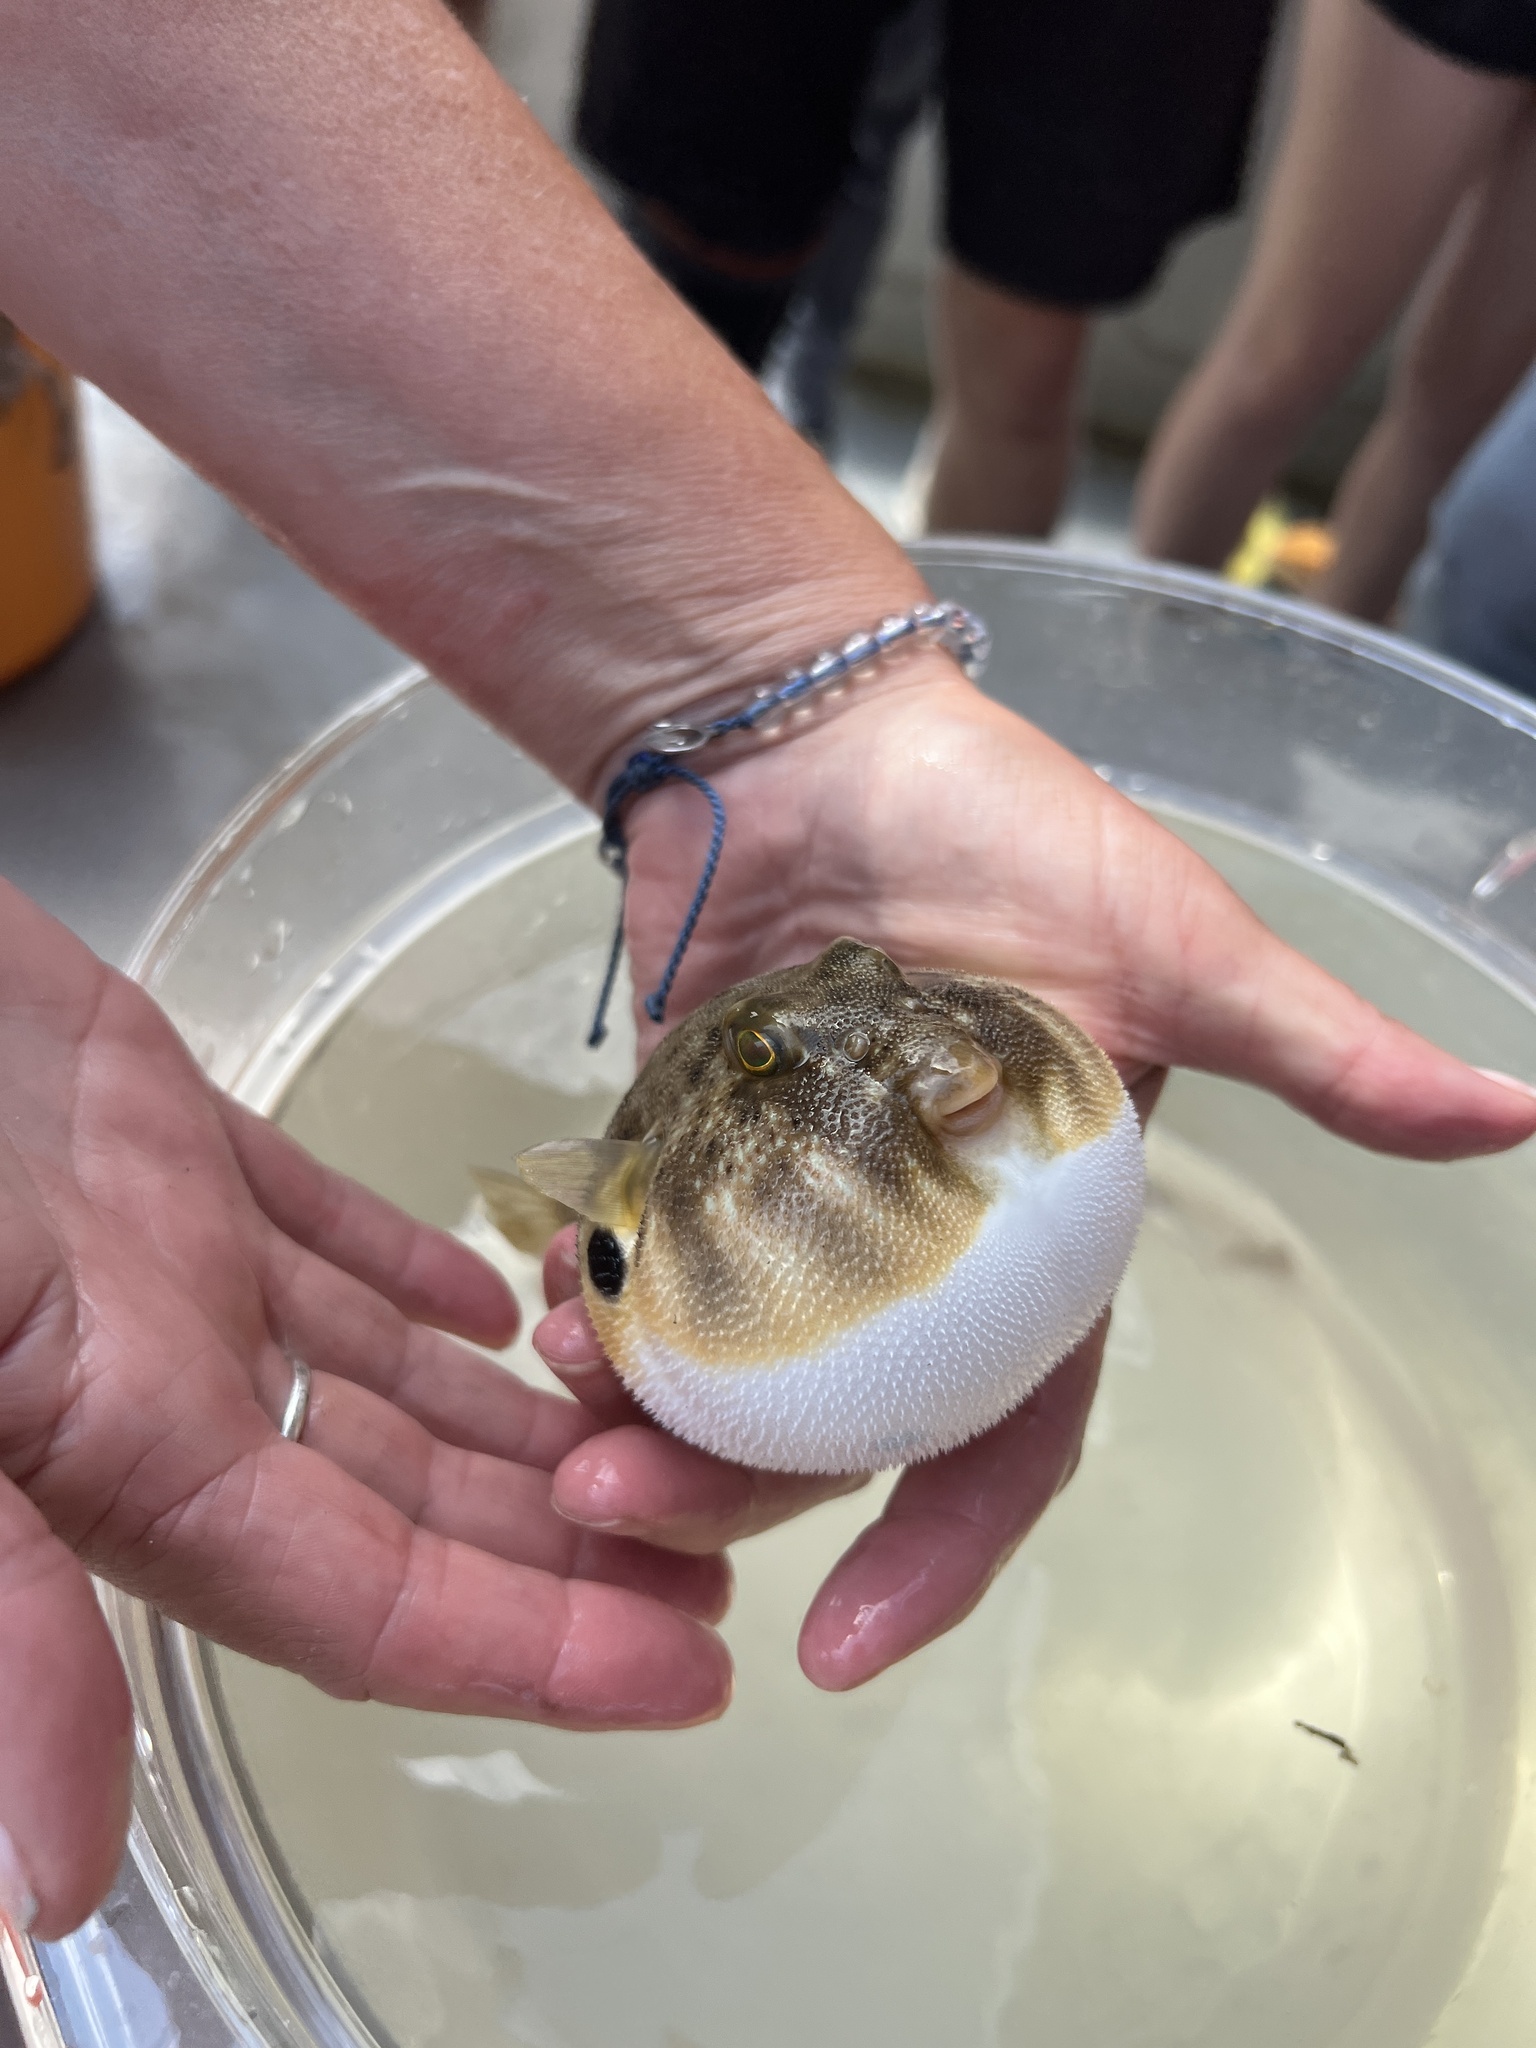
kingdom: Animalia
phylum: Chordata
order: Tetraodontiformes
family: Tetraodontidae
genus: Sphoeroides
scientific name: Sphoeroides maculatus
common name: Northern puffer
